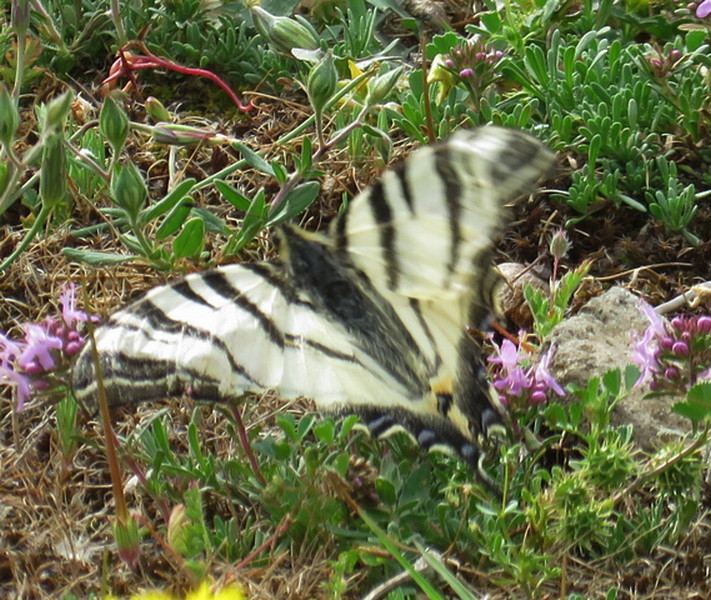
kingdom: Animalia
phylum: Arthropoda
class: Insecta
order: Lepidoptera
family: Papilionidae
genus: Iphiclides
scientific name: Iphiclides podalirius
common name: Scarce swallowtail
